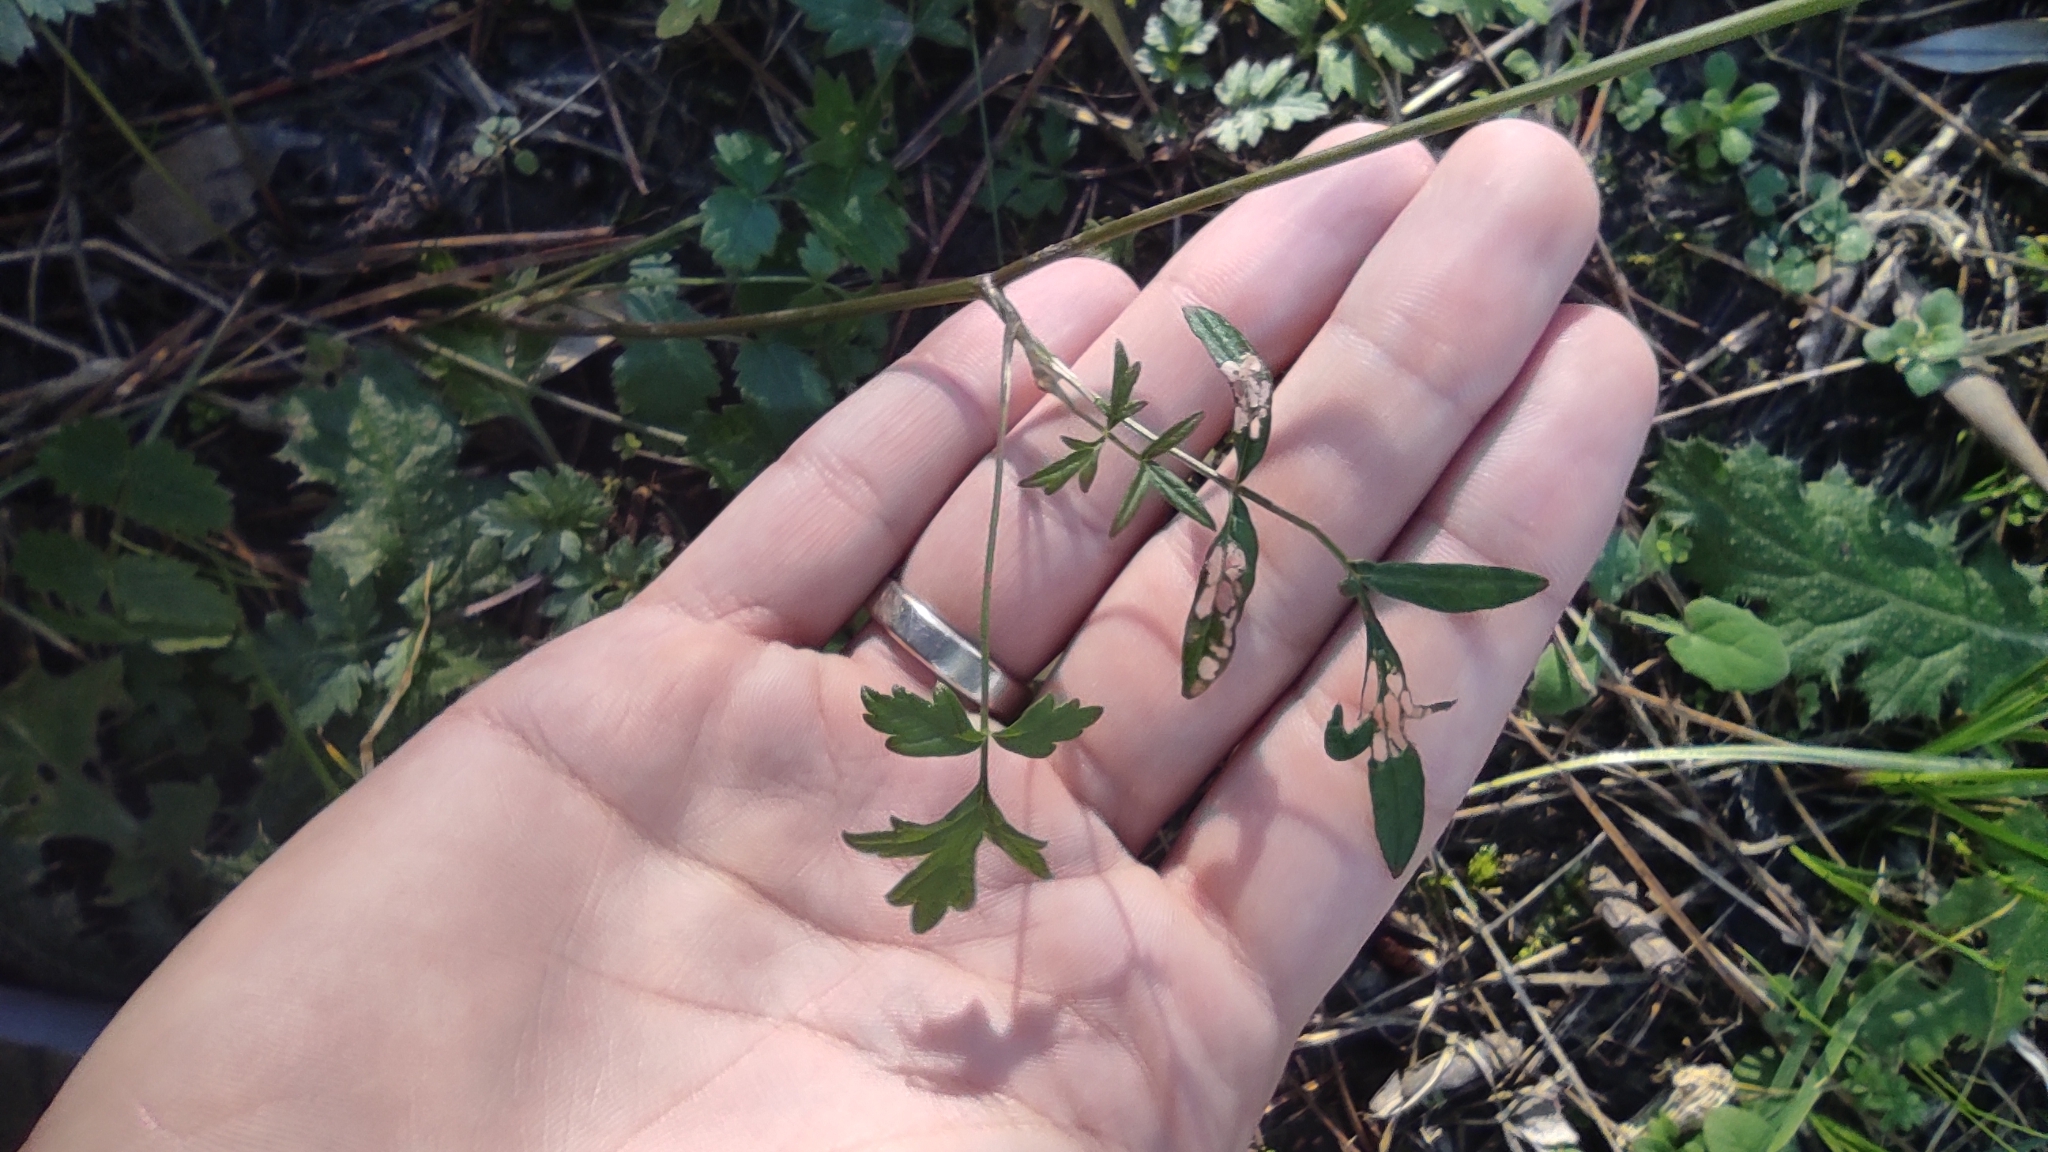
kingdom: Plantae
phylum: Tracheophyta
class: Magnoliopsida
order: Apiales
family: Apiaceae
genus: Pimpinella
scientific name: Pimpinella saxifraga
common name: Burnet-saxifrage
